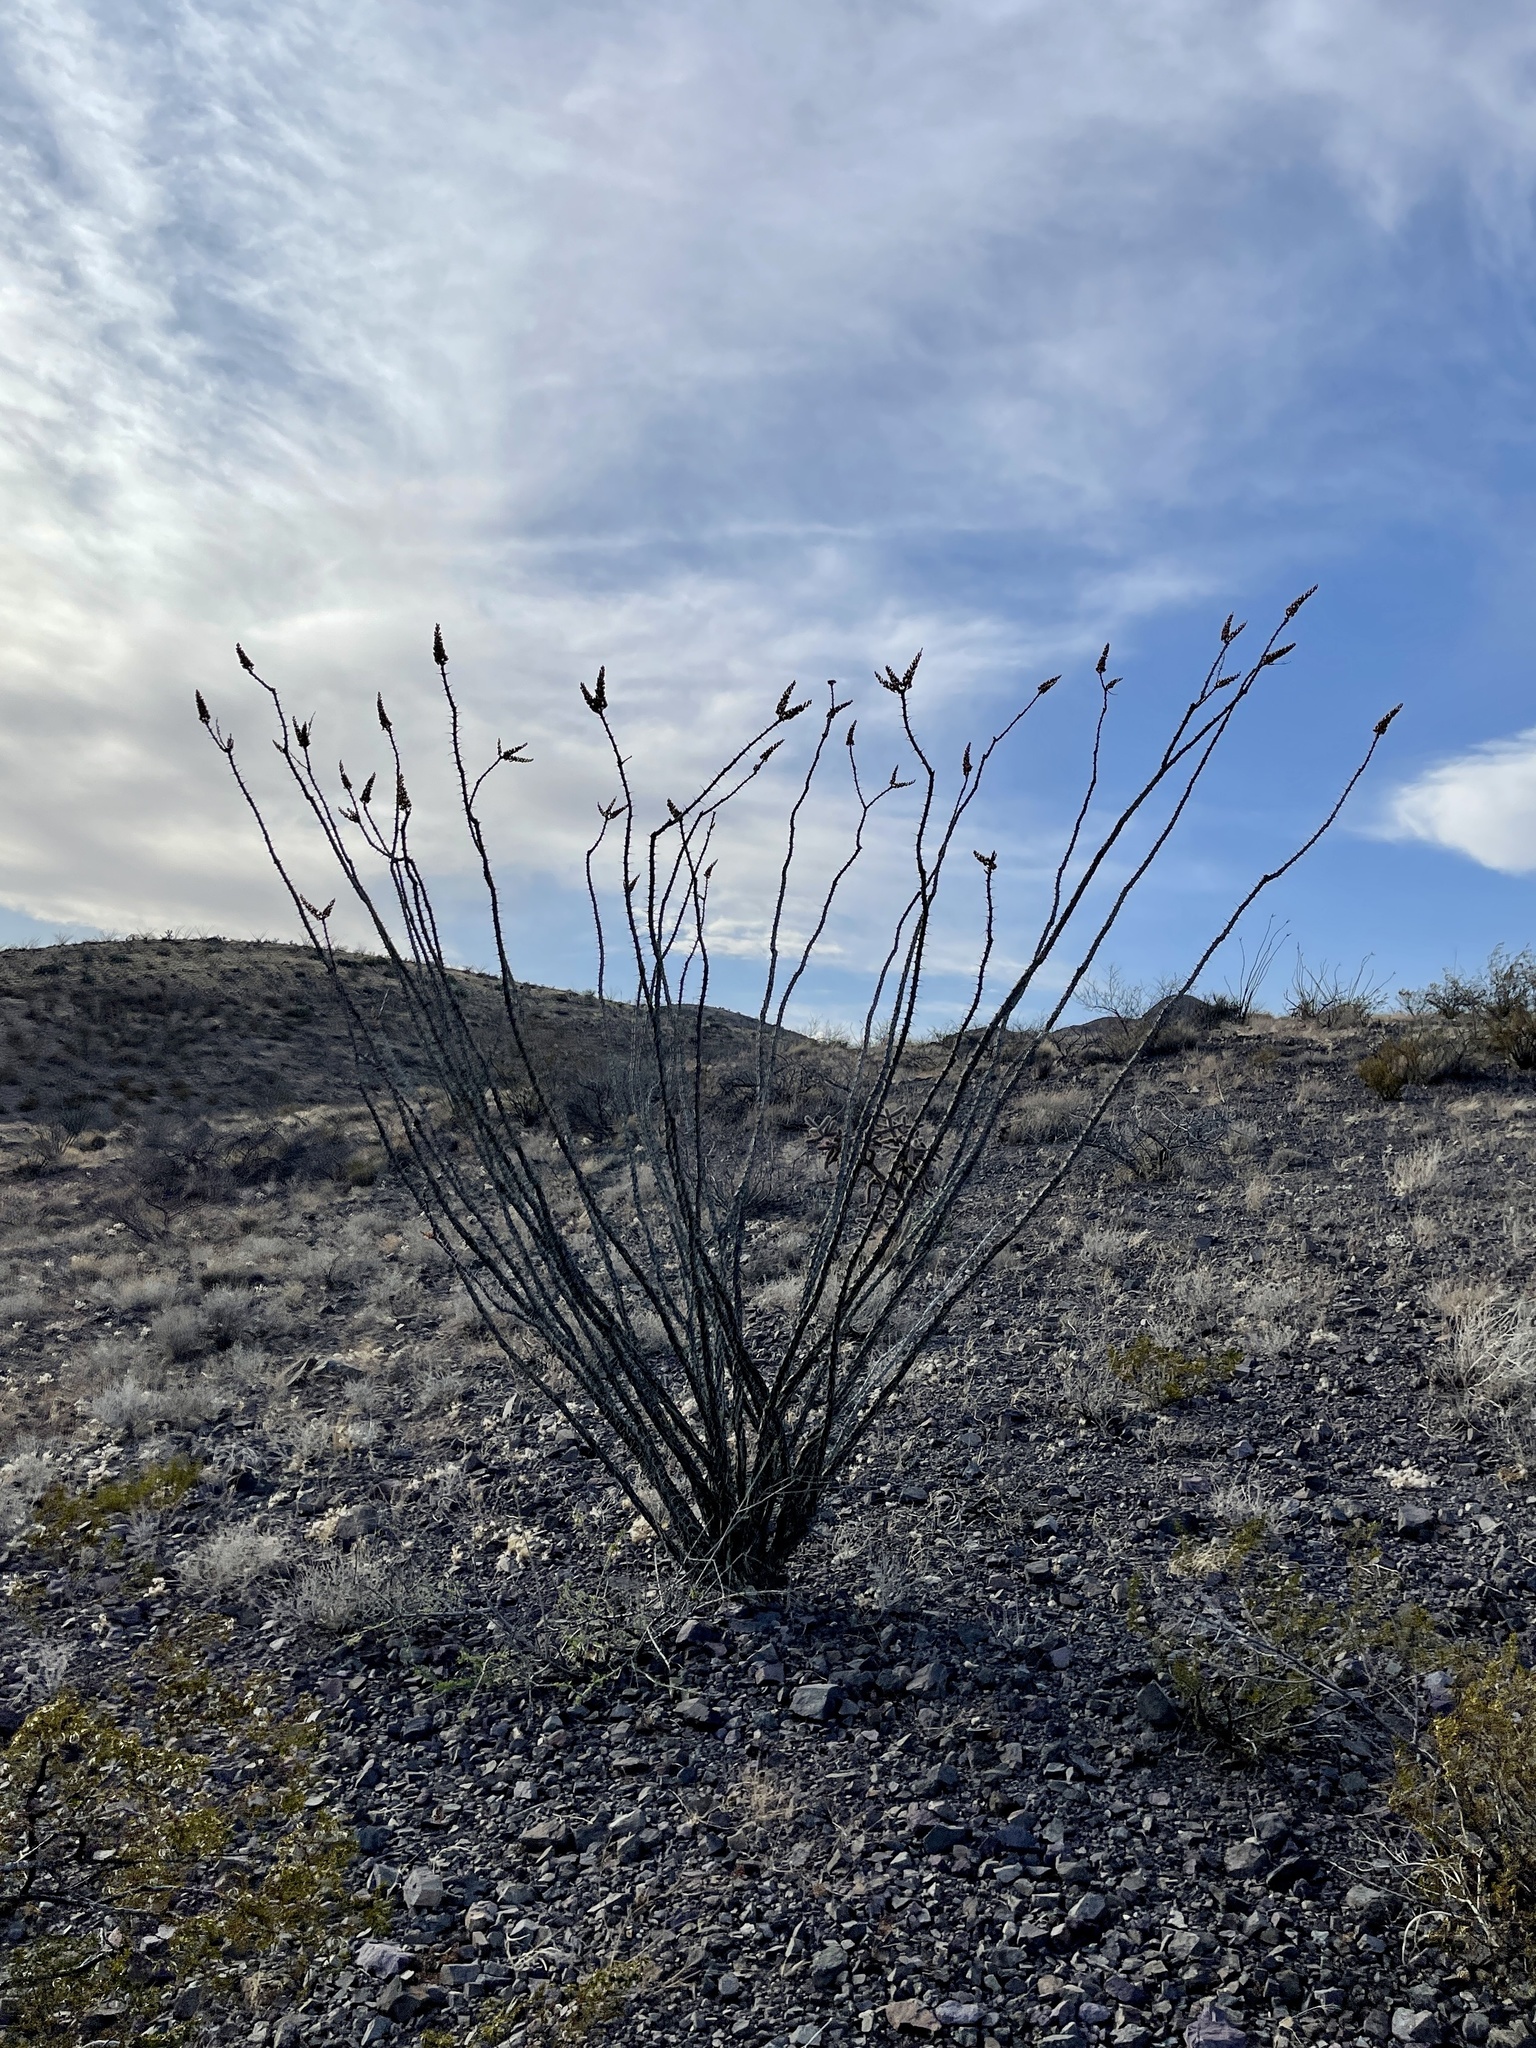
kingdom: Plantae
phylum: Tracheophyta
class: Magnoliopsida
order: Ericales
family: Fouquieriaceae
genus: Fouquieria
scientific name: Fouquieria splendens
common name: Vine-cactus
